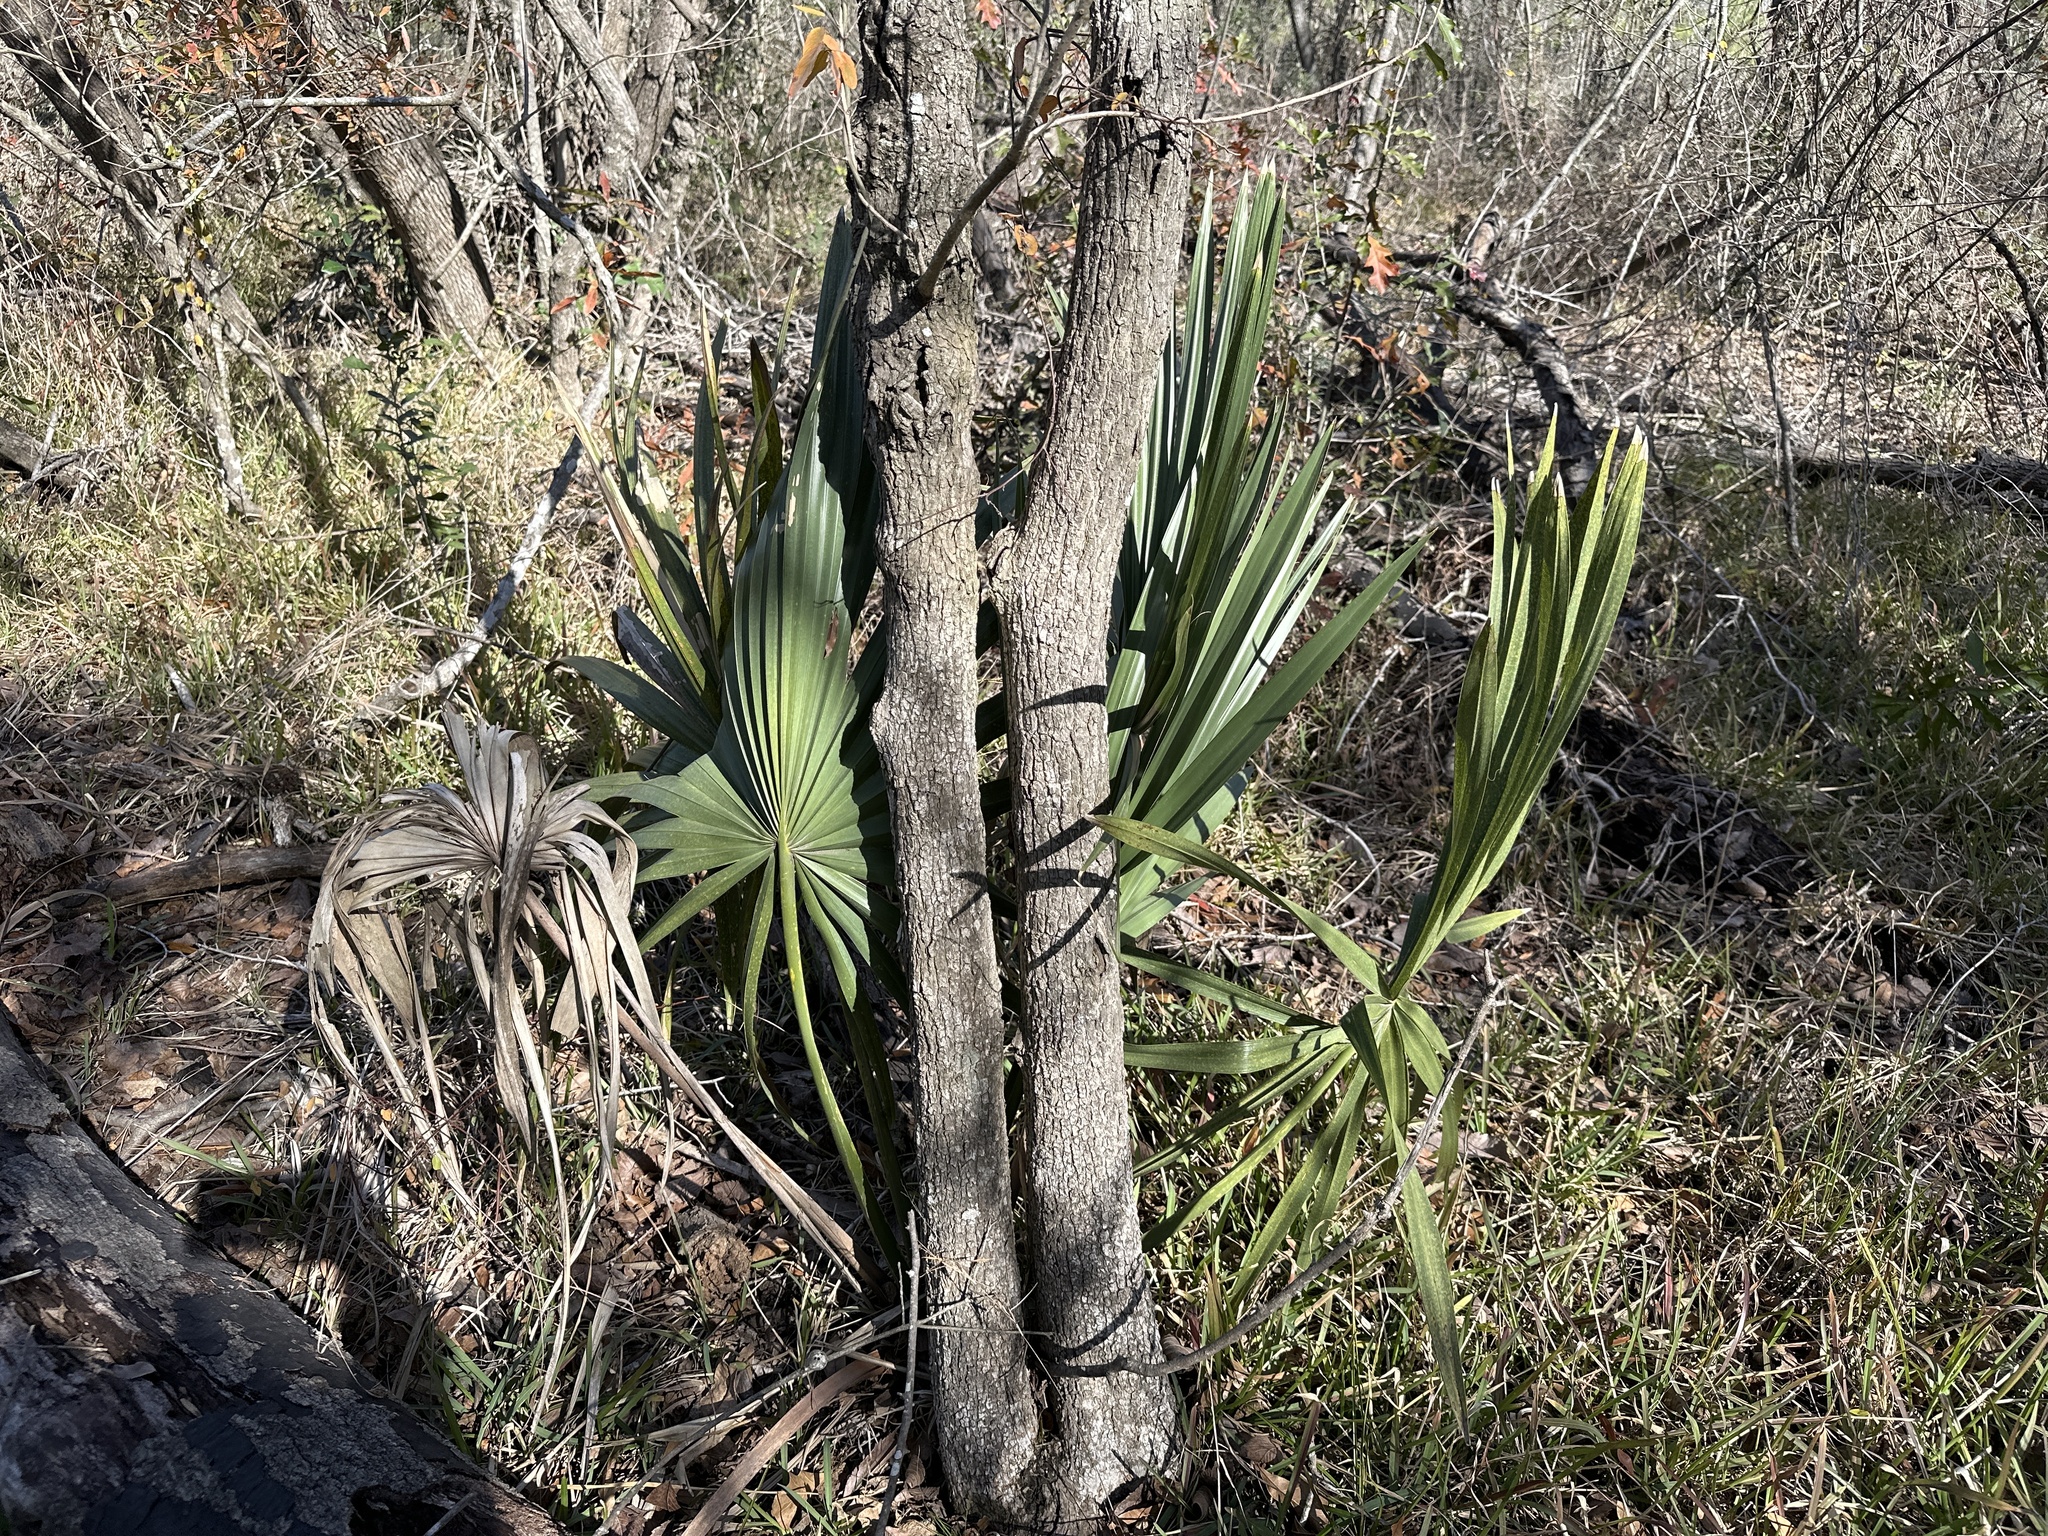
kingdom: Plantae
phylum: Tracheophyta
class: Liliopsida
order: Arecales
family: Arecaceae
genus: Sabal
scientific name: Sabal minor
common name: Dwarf palmetto
